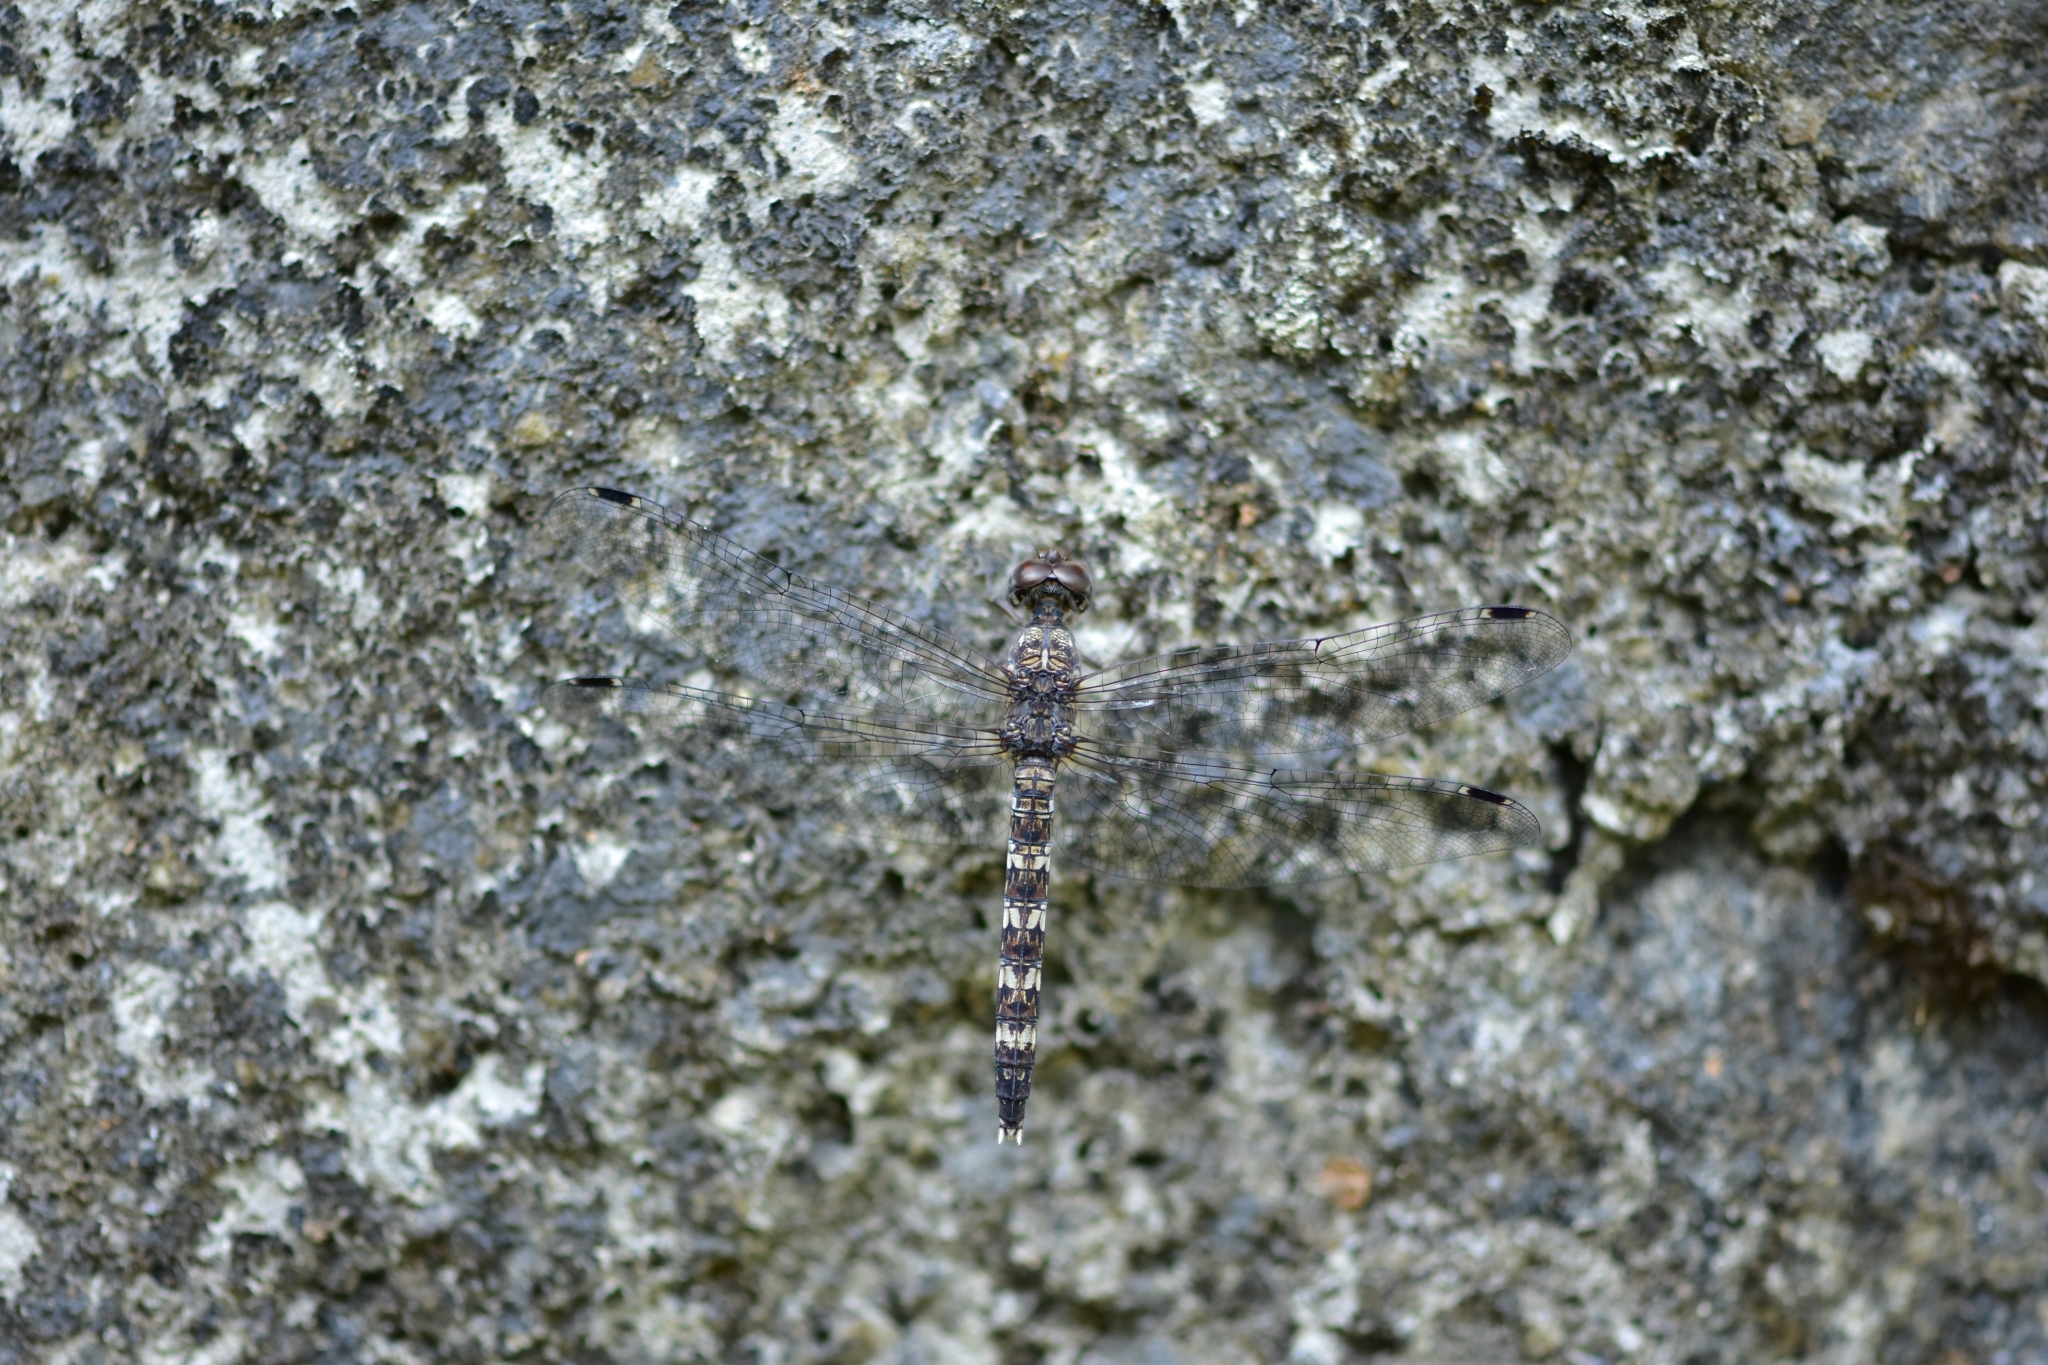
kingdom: Animalia
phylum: Arthropoda
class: Insecta
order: Odonata
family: Libellulidae
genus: Bradinopyga
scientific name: Bradinopyga geminata
